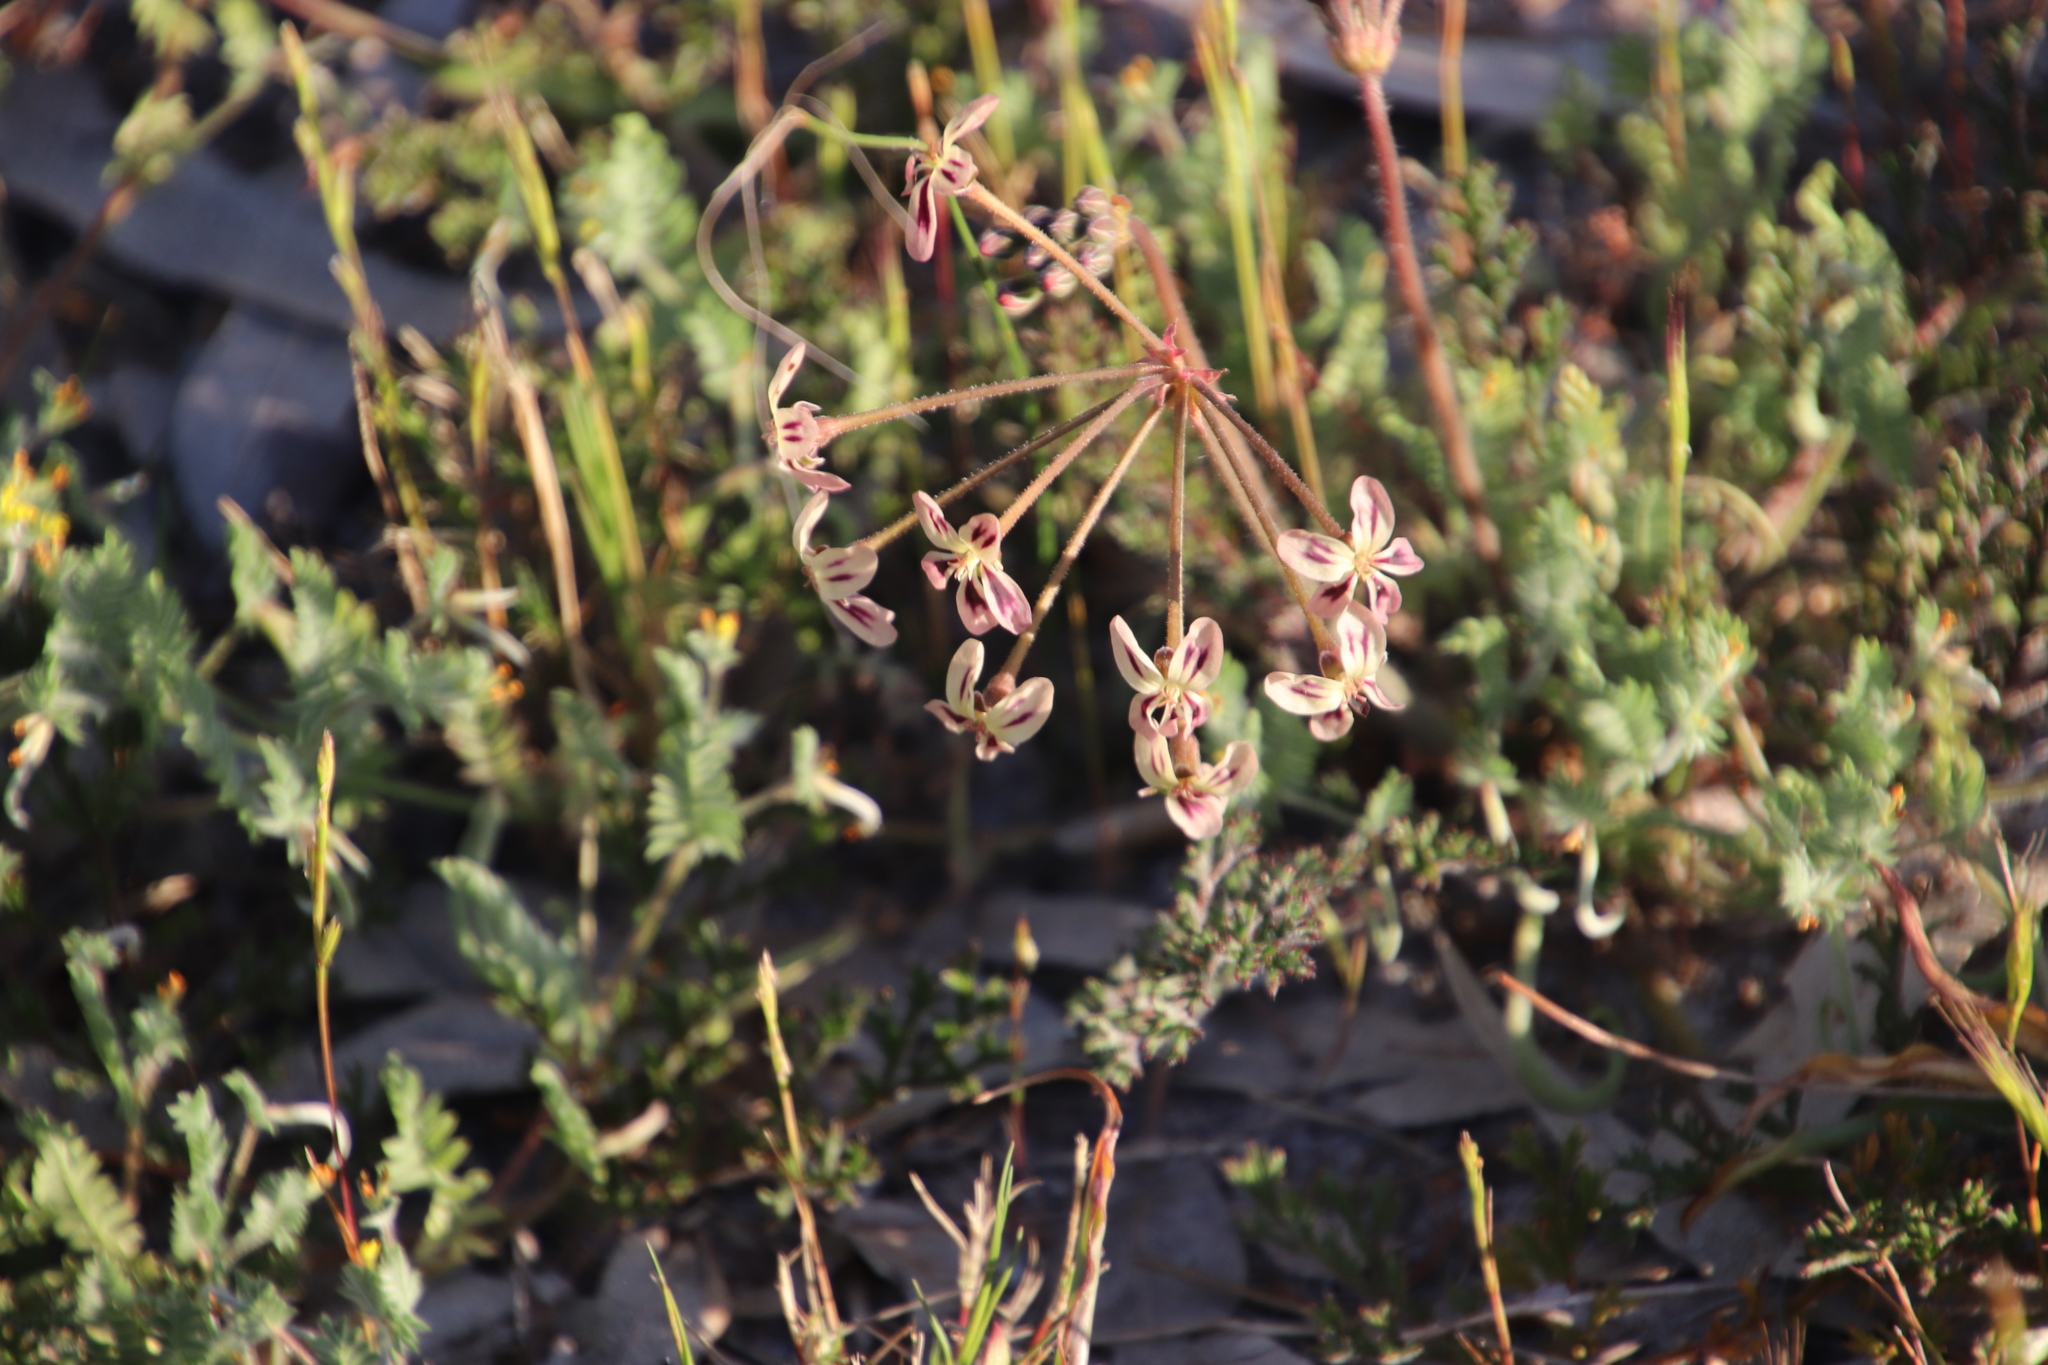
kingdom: Plantae
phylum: Tracheophyta
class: Magnoliopsida
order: Geraniales
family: Geraniaceae
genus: Pelargonium
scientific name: Pelargonium triste
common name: Night-scent pelargonium
